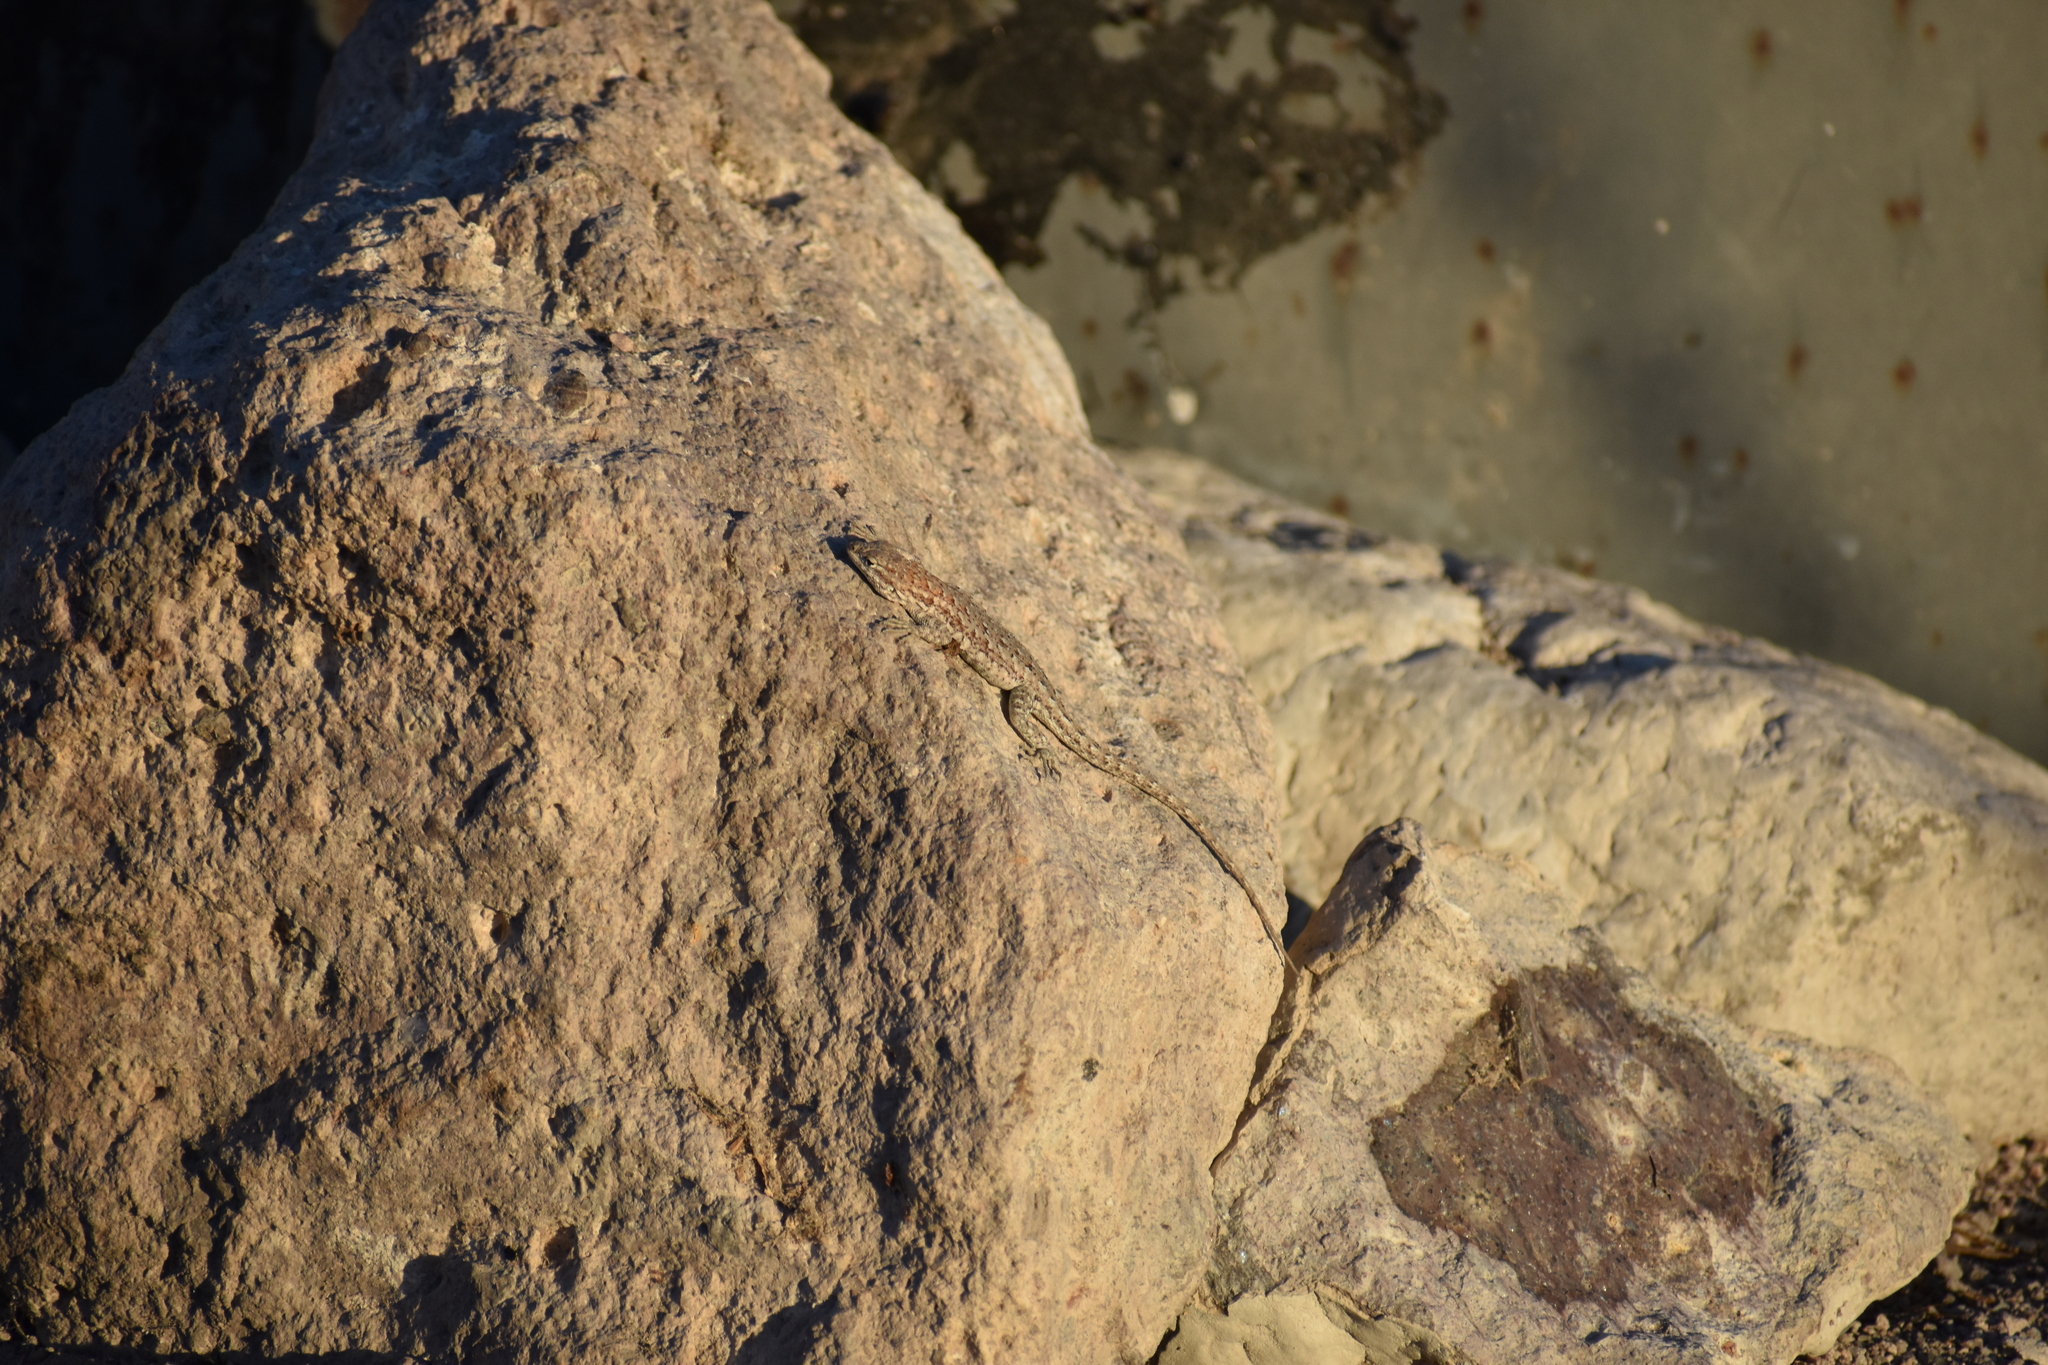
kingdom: Animalia
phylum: Chordata
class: Squamata
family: Phrynosomatidae
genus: Uta
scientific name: Uta stansburiana
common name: Side-blotched lizard
